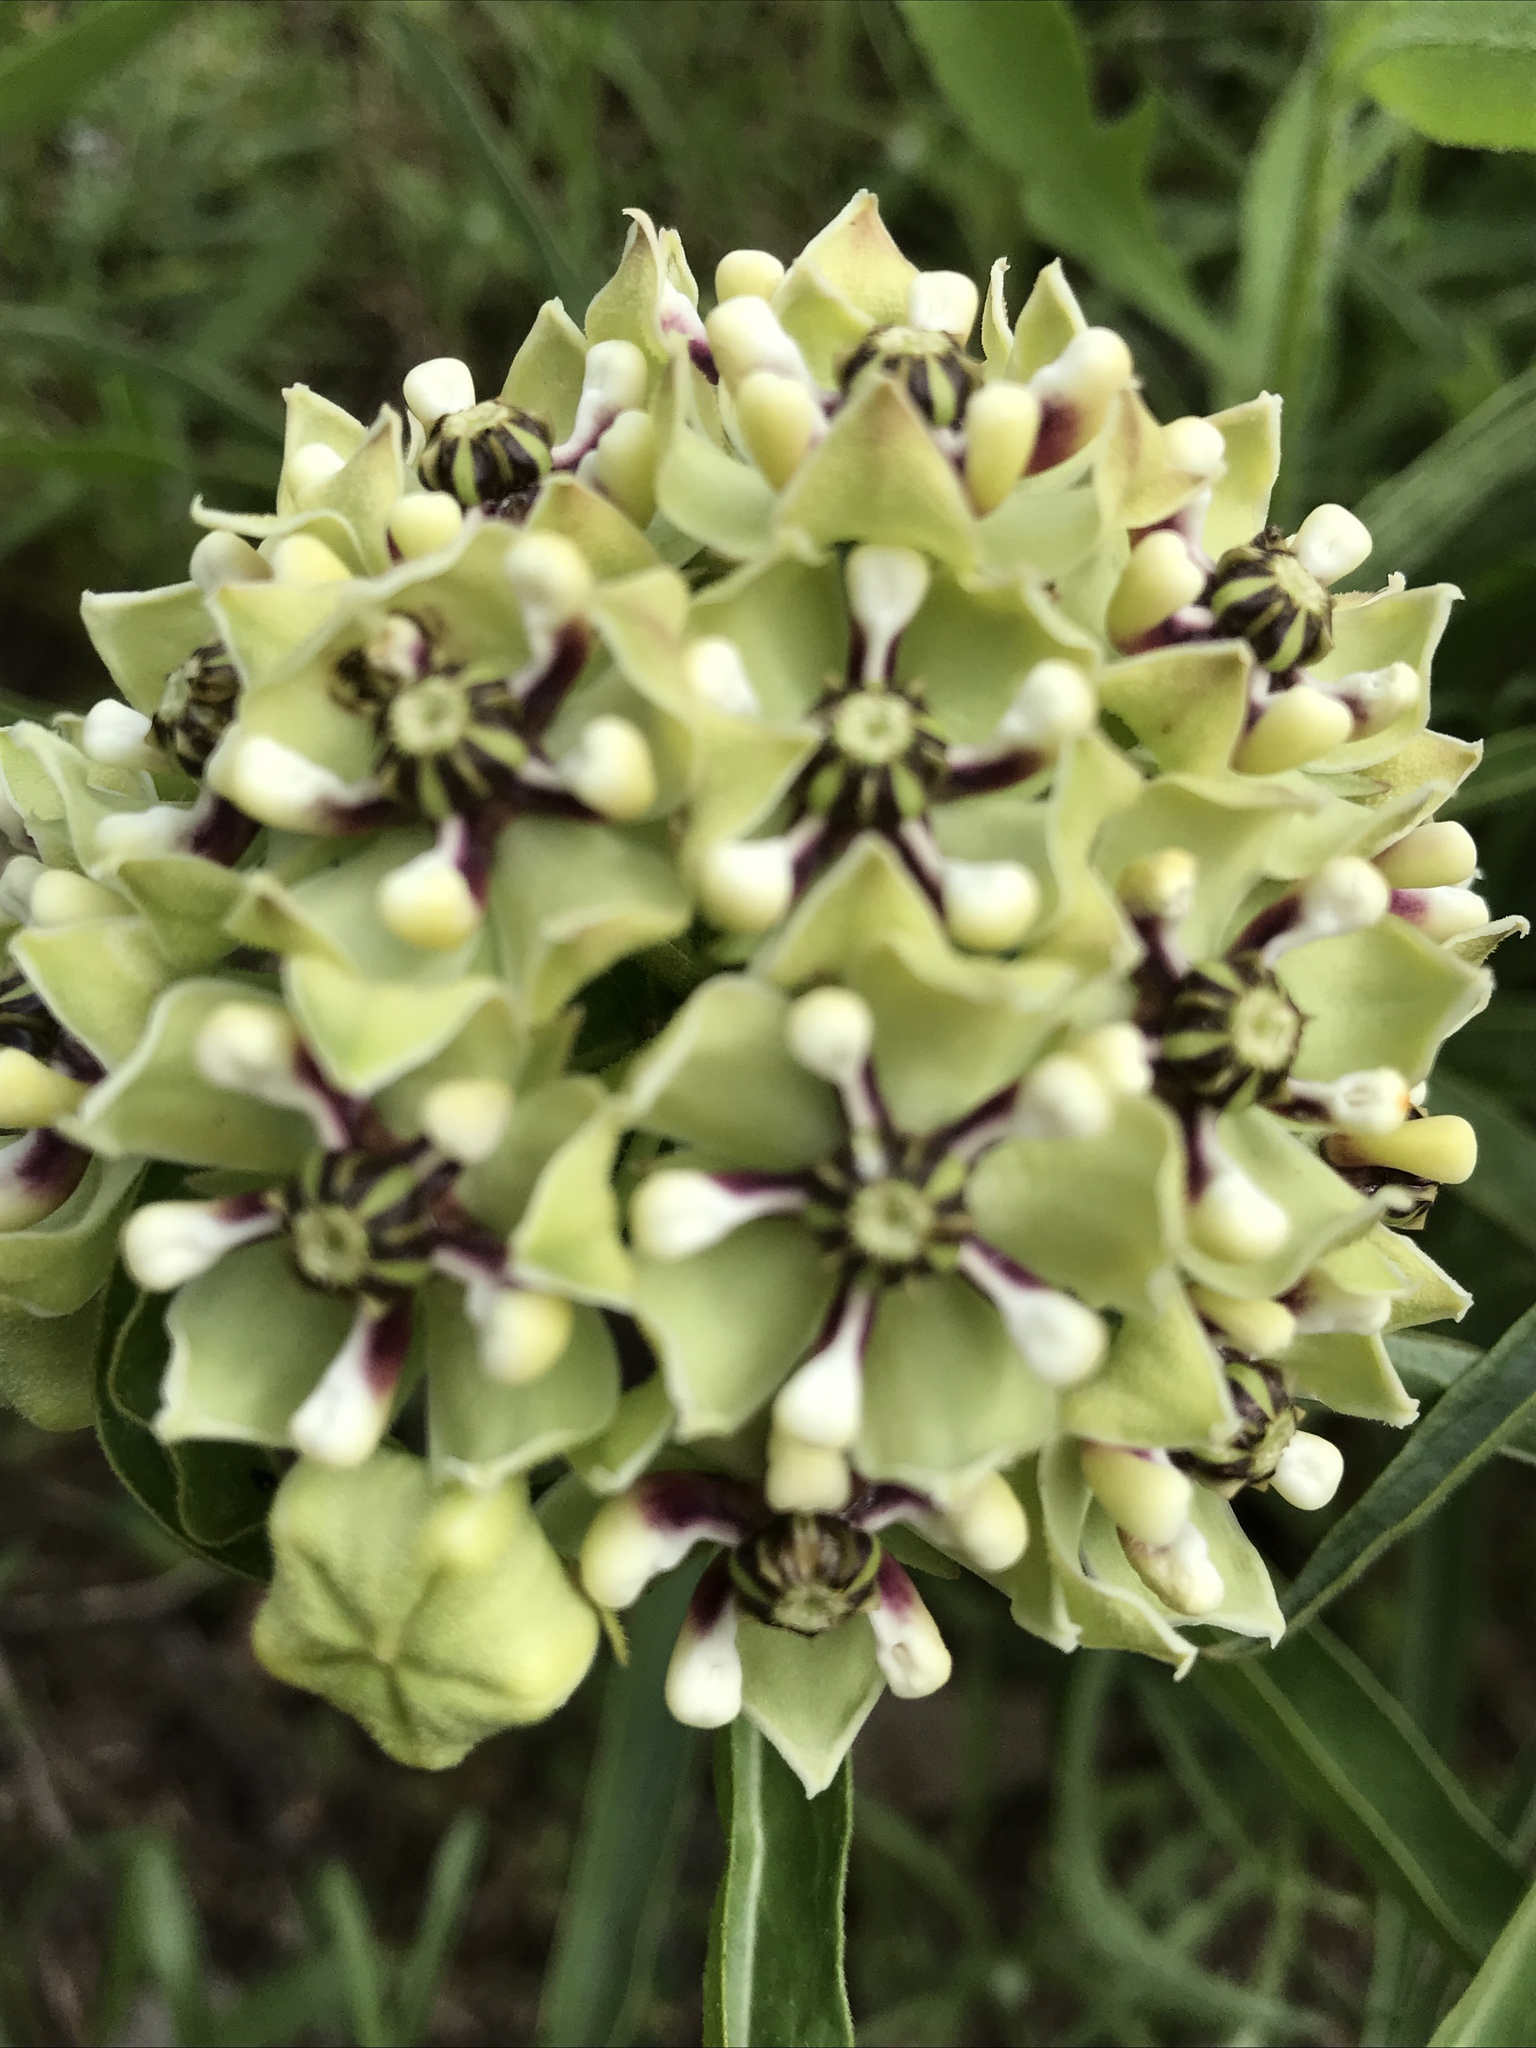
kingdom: Plantae
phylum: Tracheophyta
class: Magnoliopsida
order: Gentianales
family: Apocynaceae
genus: Asclepias
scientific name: Asclepias asperula
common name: Antelope horns
